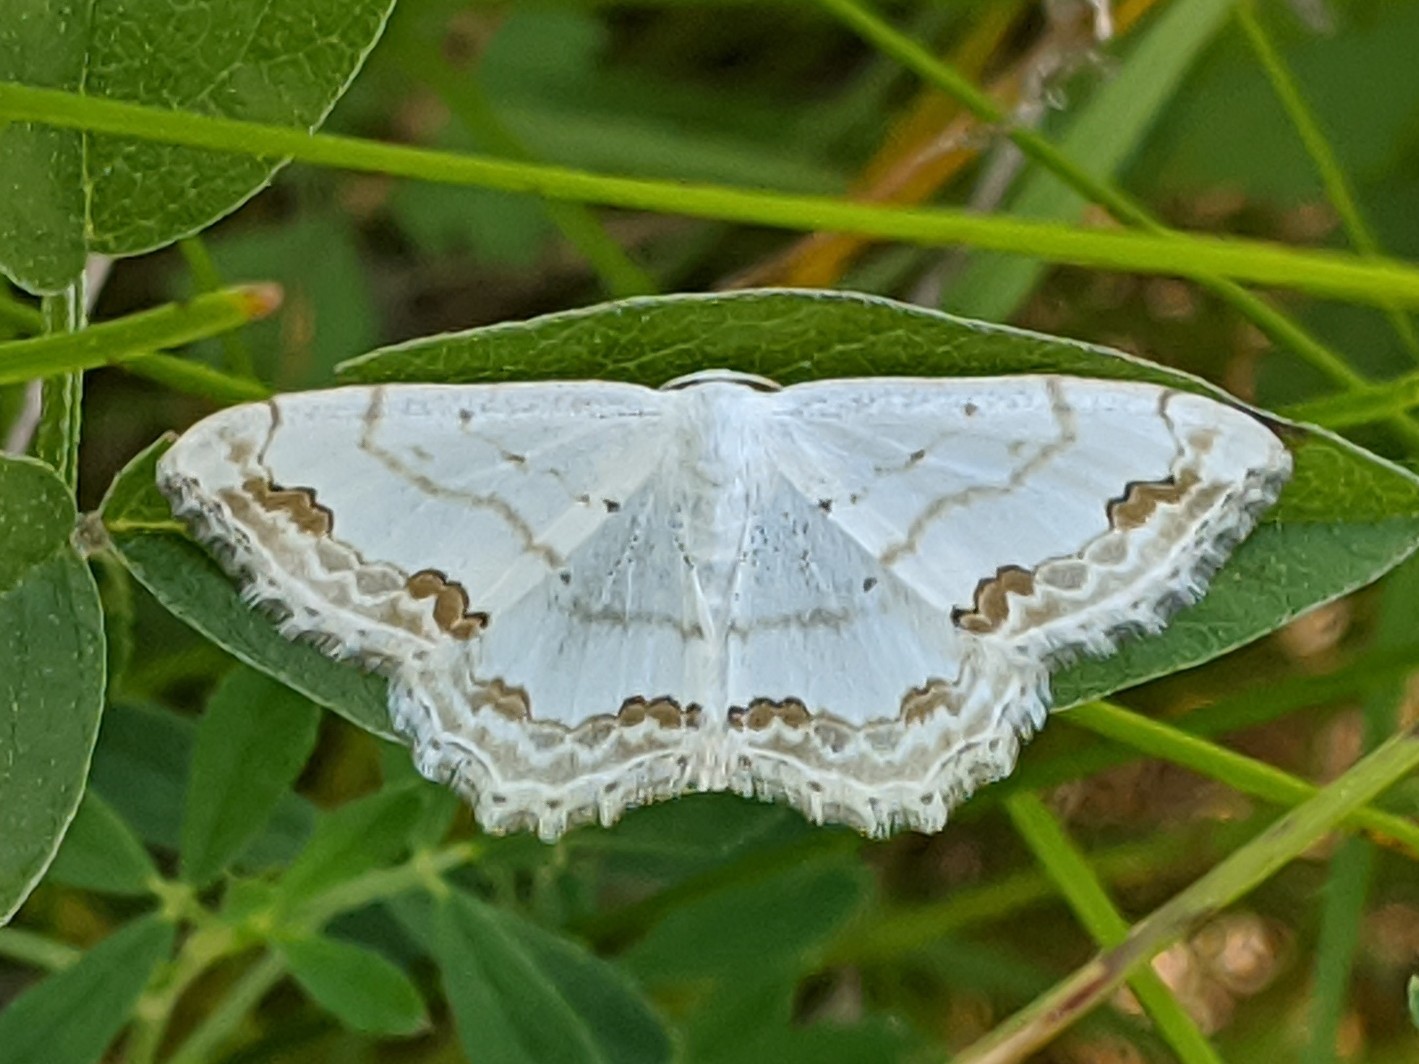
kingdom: Animalia
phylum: Arthropoda
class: Insecta
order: Lepidoptera
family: Geometridae
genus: Scopula
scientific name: Scopula ornata
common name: Lace border
